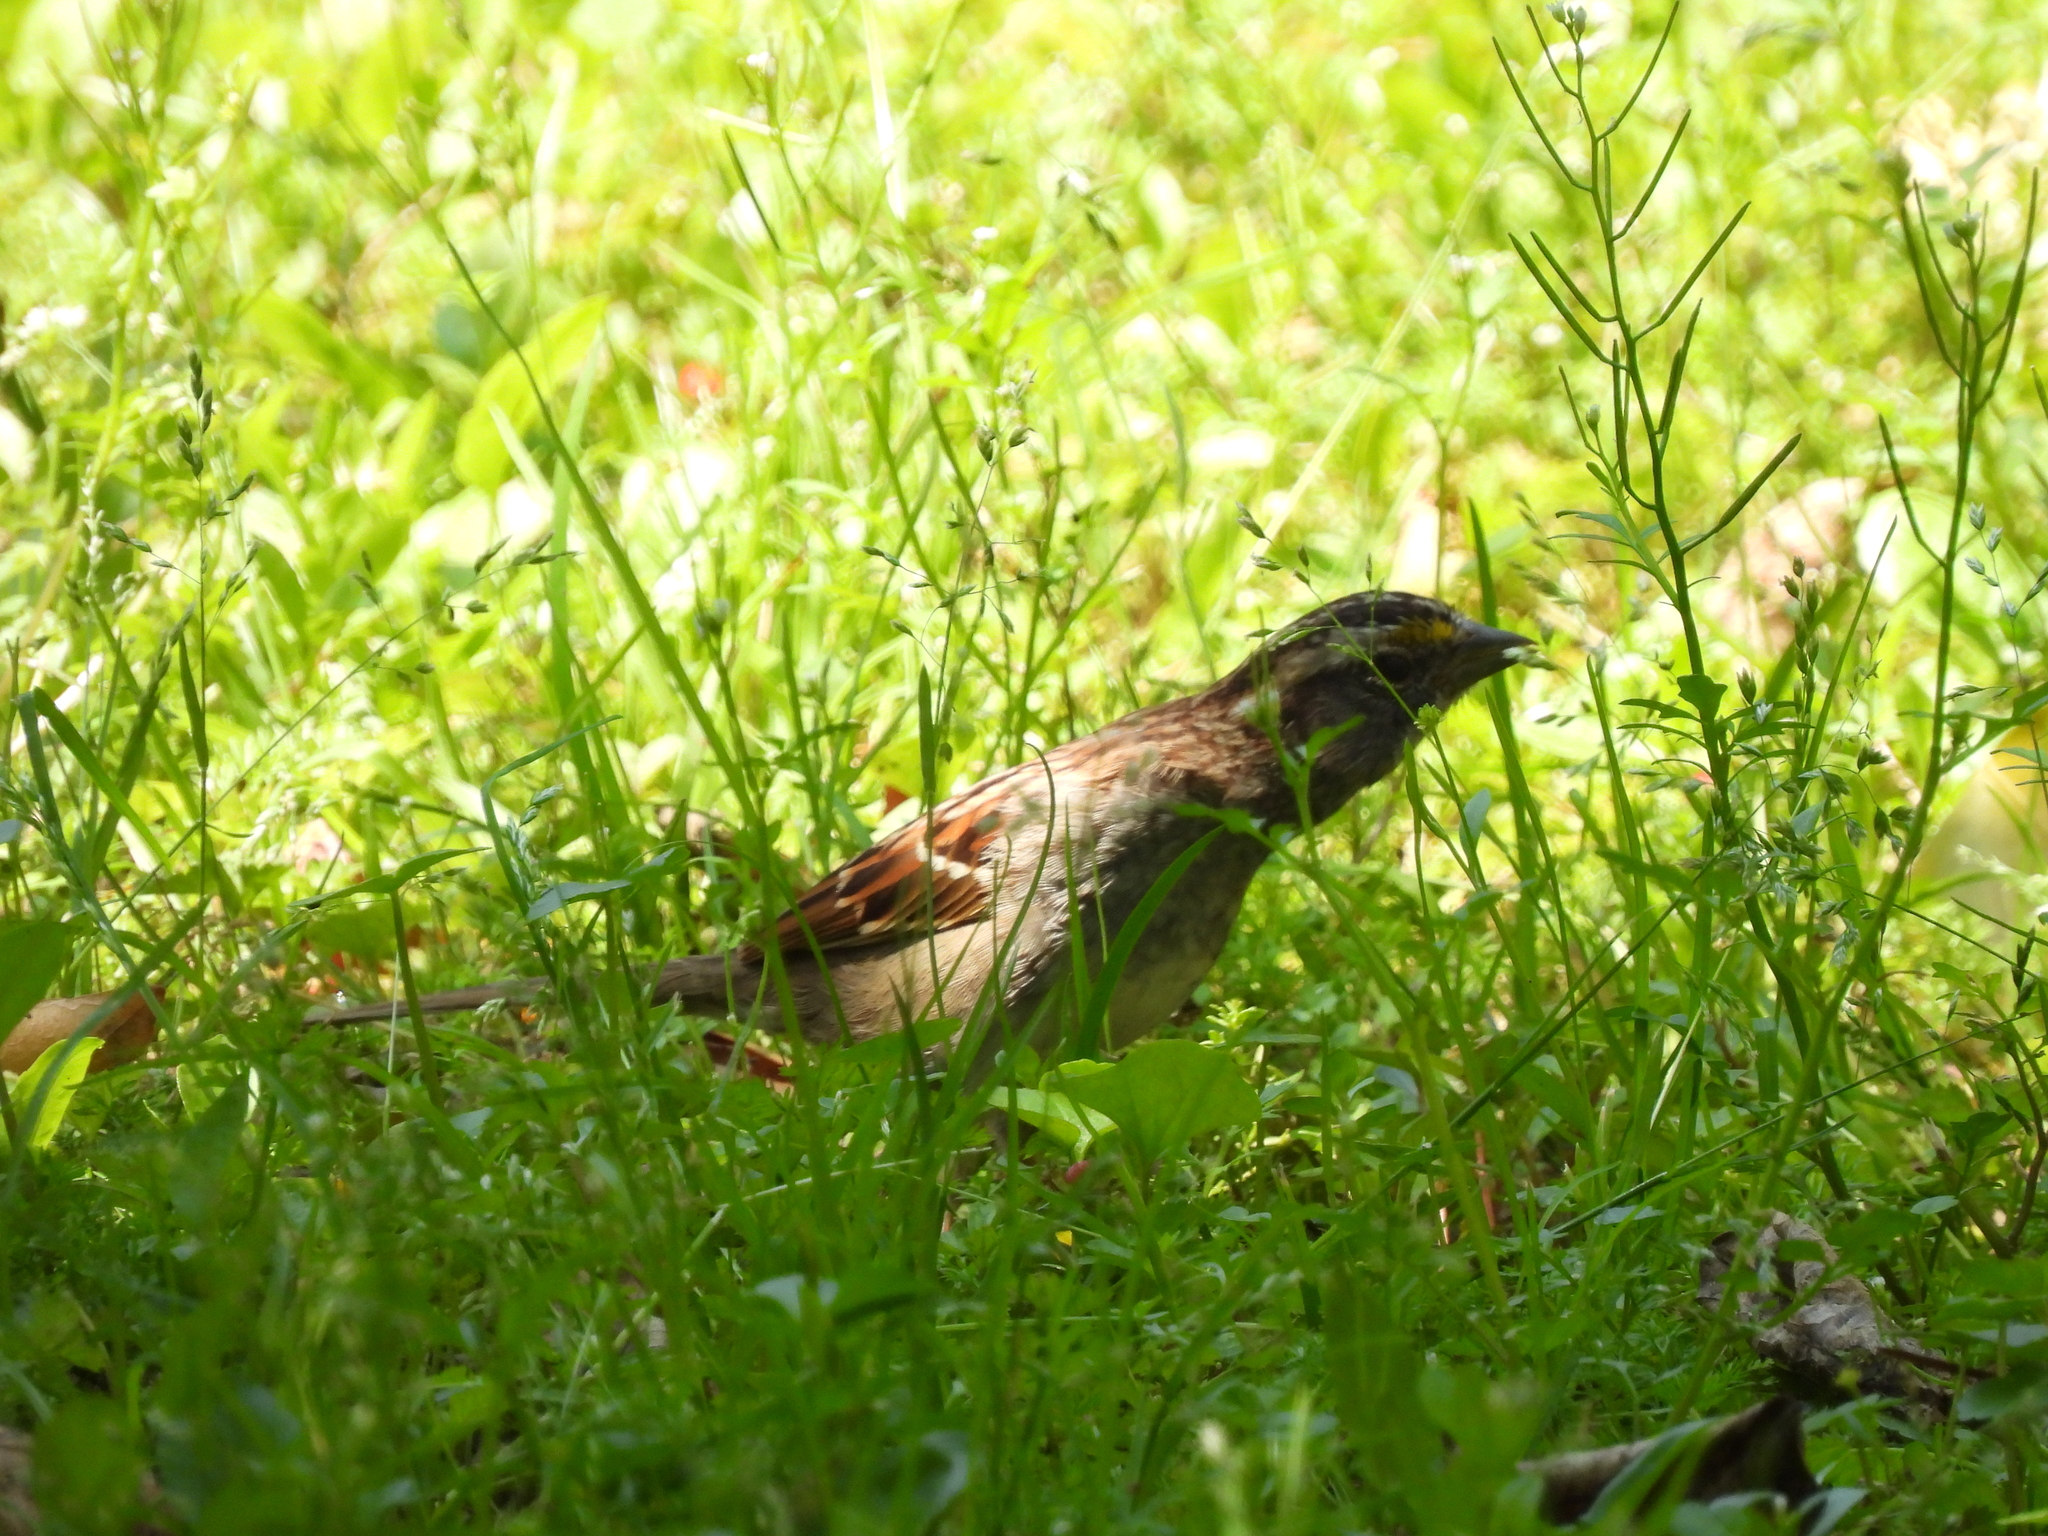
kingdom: Animalia
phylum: Chordata
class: Aves
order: Passeriformes
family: Passerellidae
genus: Zonotrichia
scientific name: Zonotrichia albicollis
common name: White-throated sparrow
